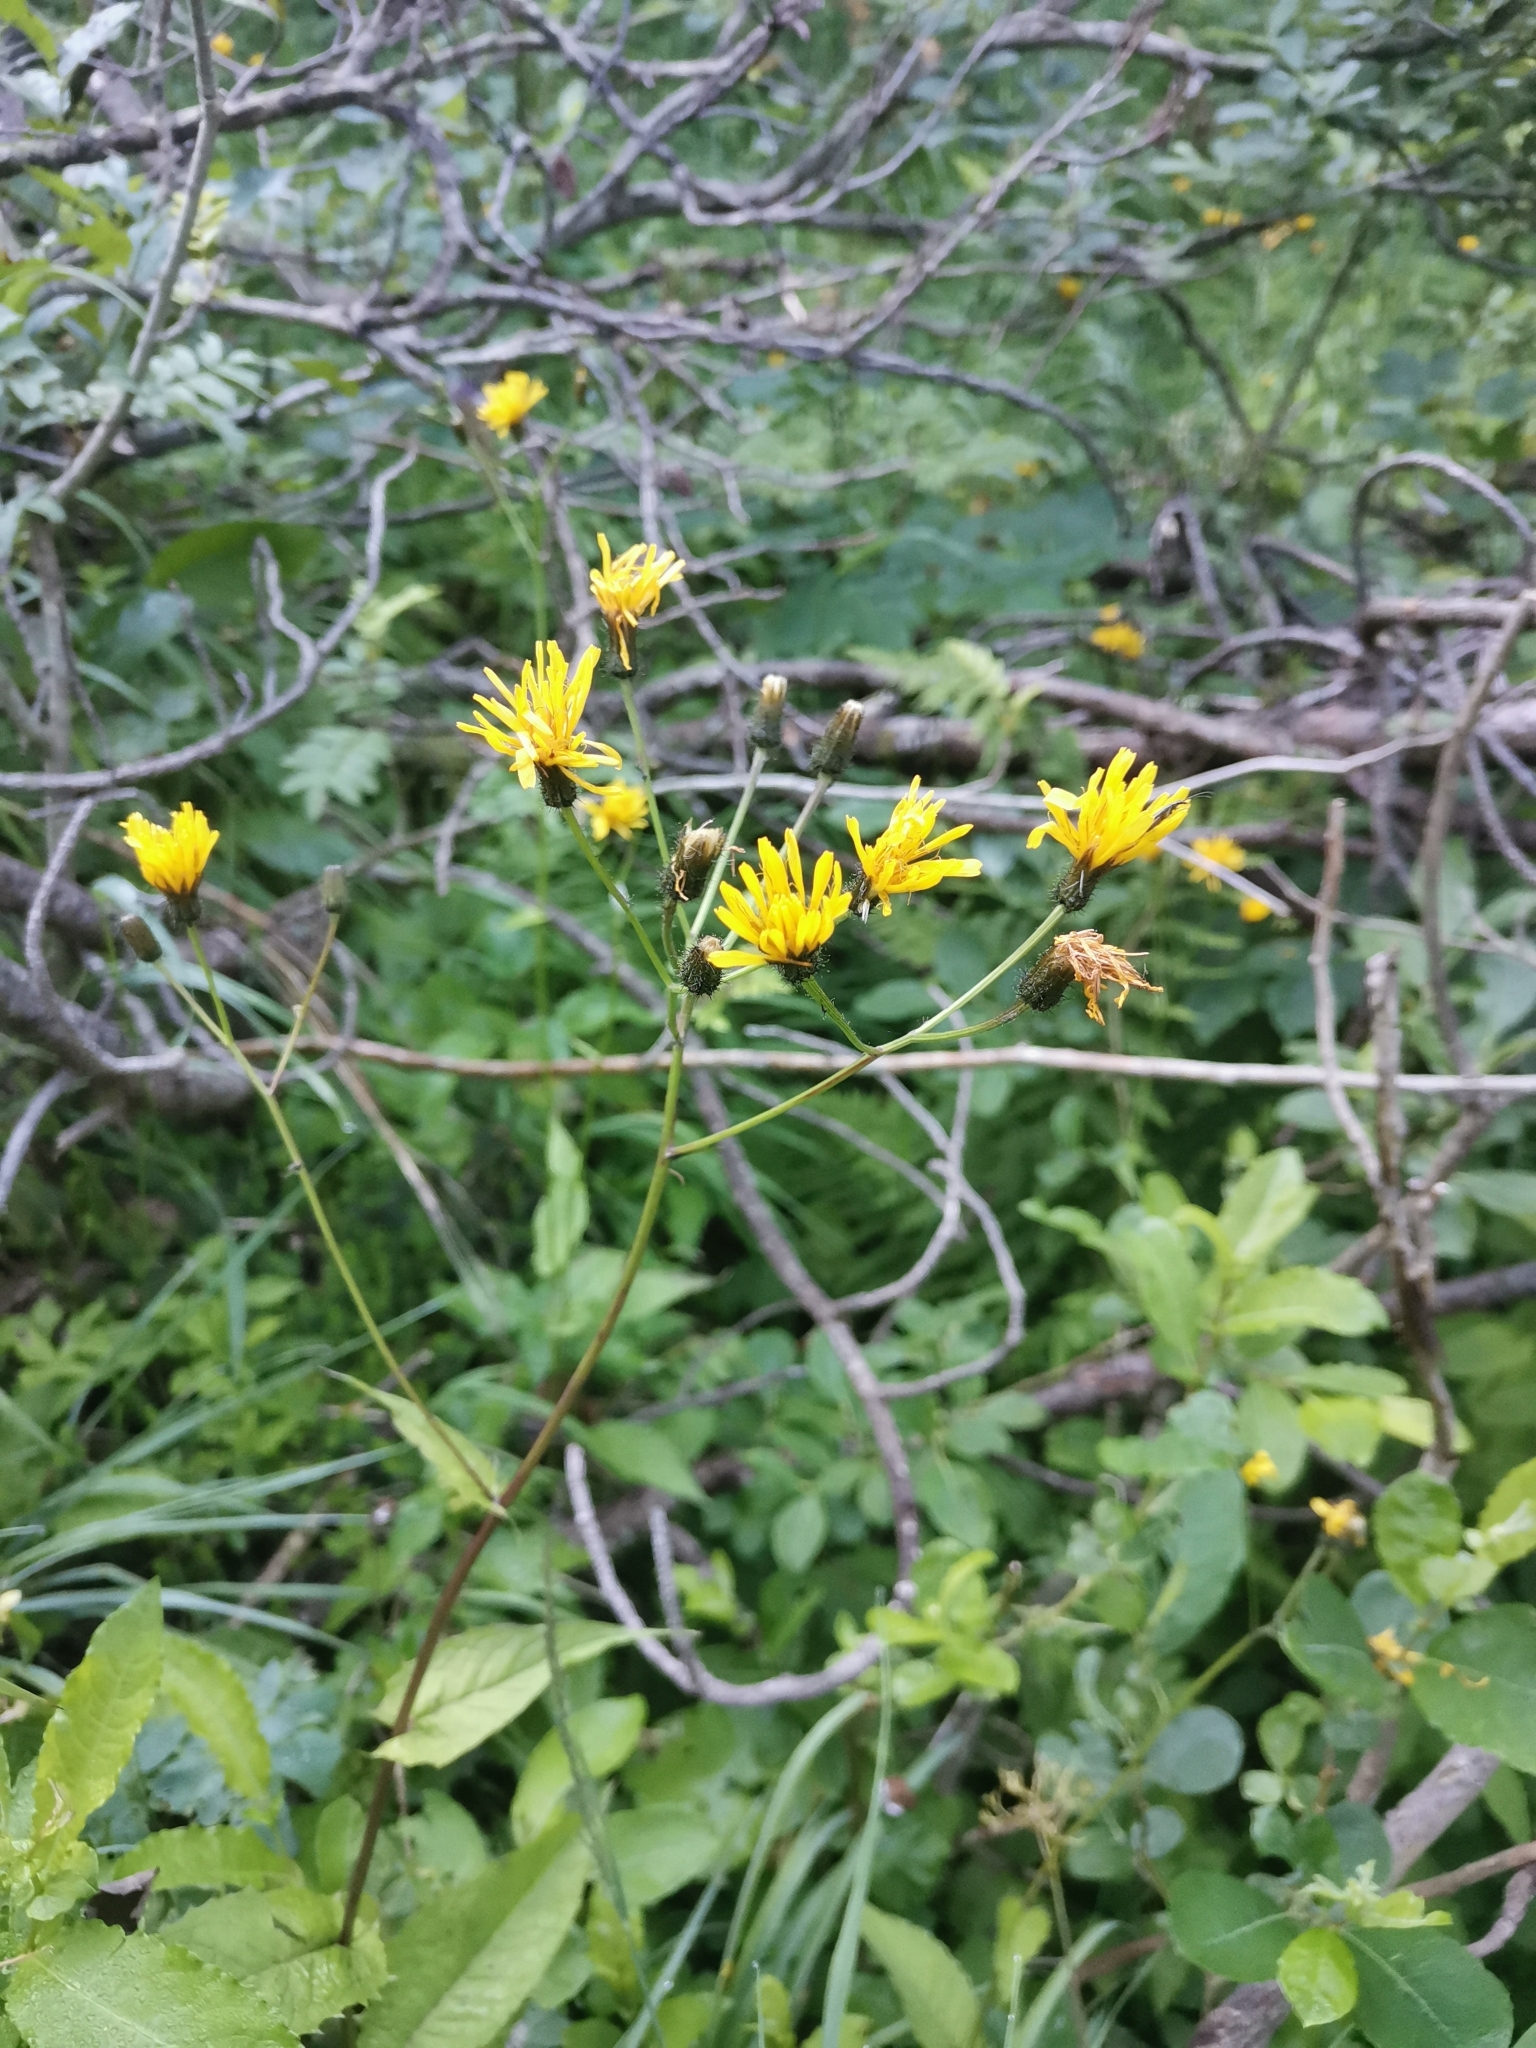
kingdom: Plantae
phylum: Tracheophyta
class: Magnoliopsida
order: Asterales
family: Asteraceae
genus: Crepis
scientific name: Crepis paludosa
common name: Marsh hawk's-beard
